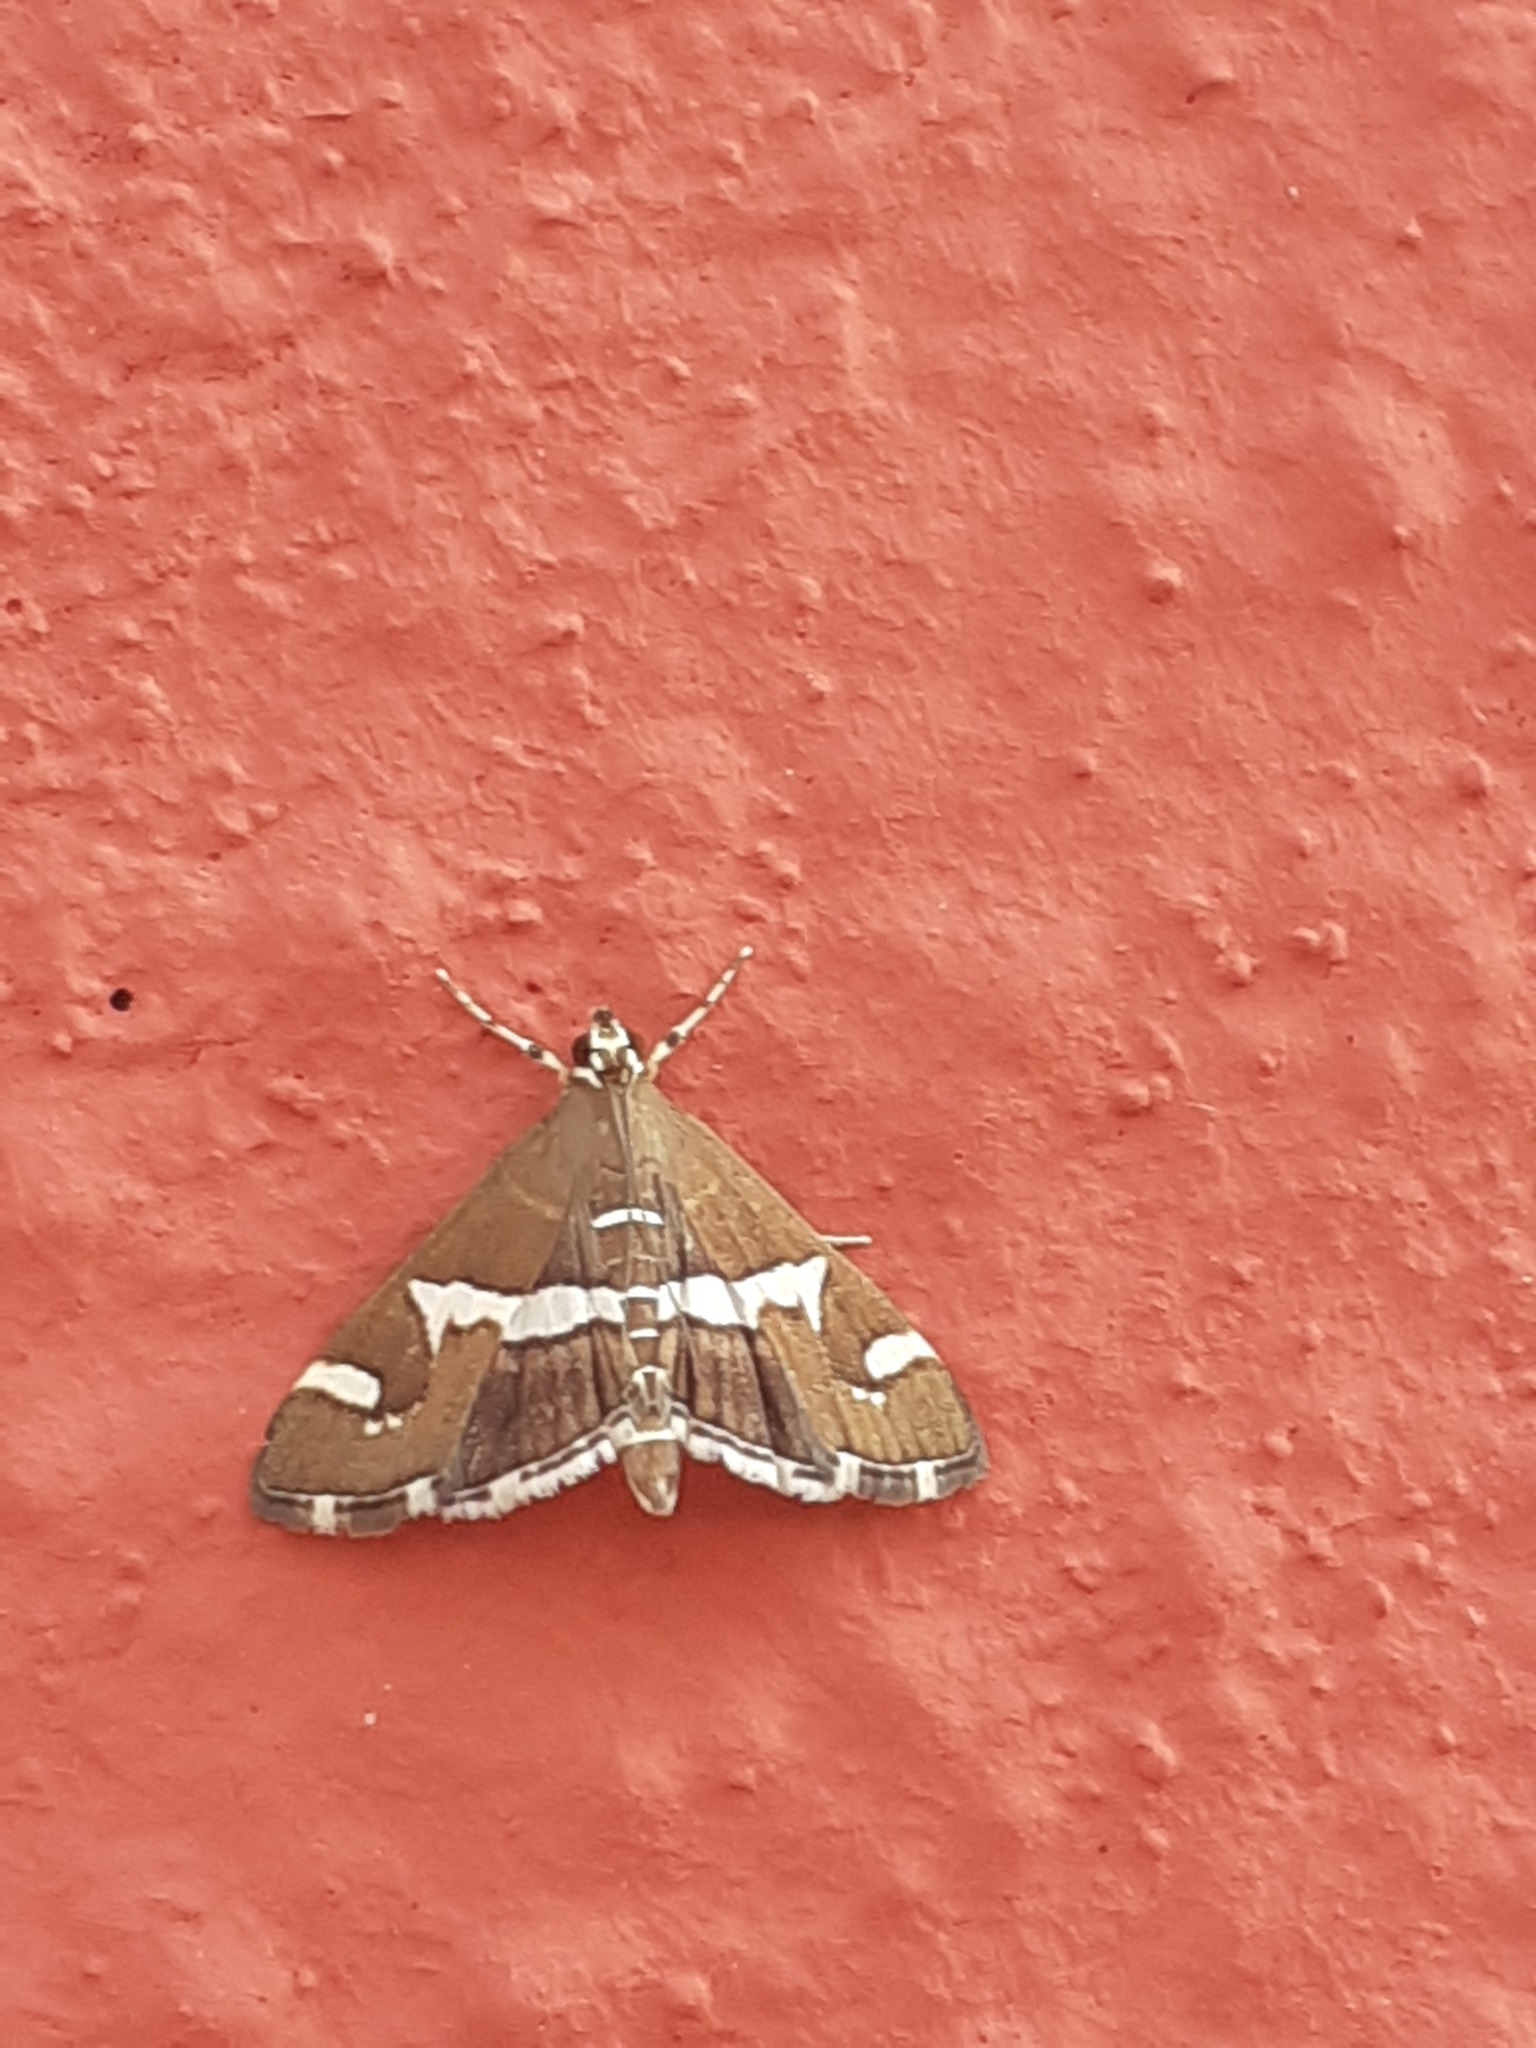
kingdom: Animalia
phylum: Arthropoda
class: Insecta
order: Lepidoptera
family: Crambidae
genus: Spoladea
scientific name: Spoladea recurvalis
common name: Beet webworm moth
